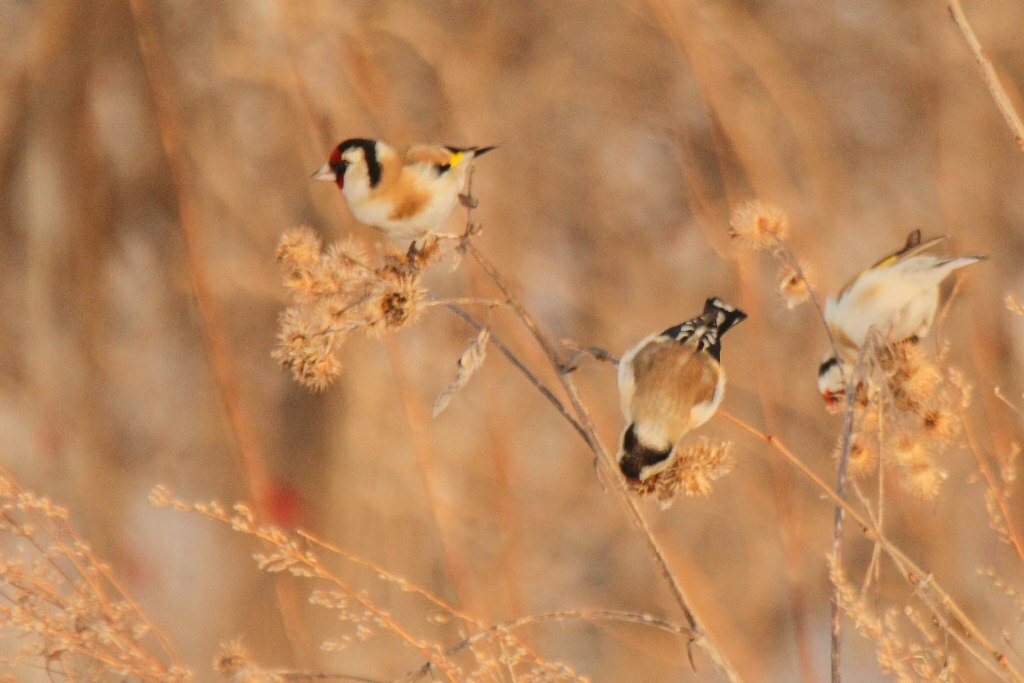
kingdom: Animalia
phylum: Chordata
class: Aves
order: Passeriformes
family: Fringillidae
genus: Carduelis
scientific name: Carduelis carduelis
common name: European goldfinch
